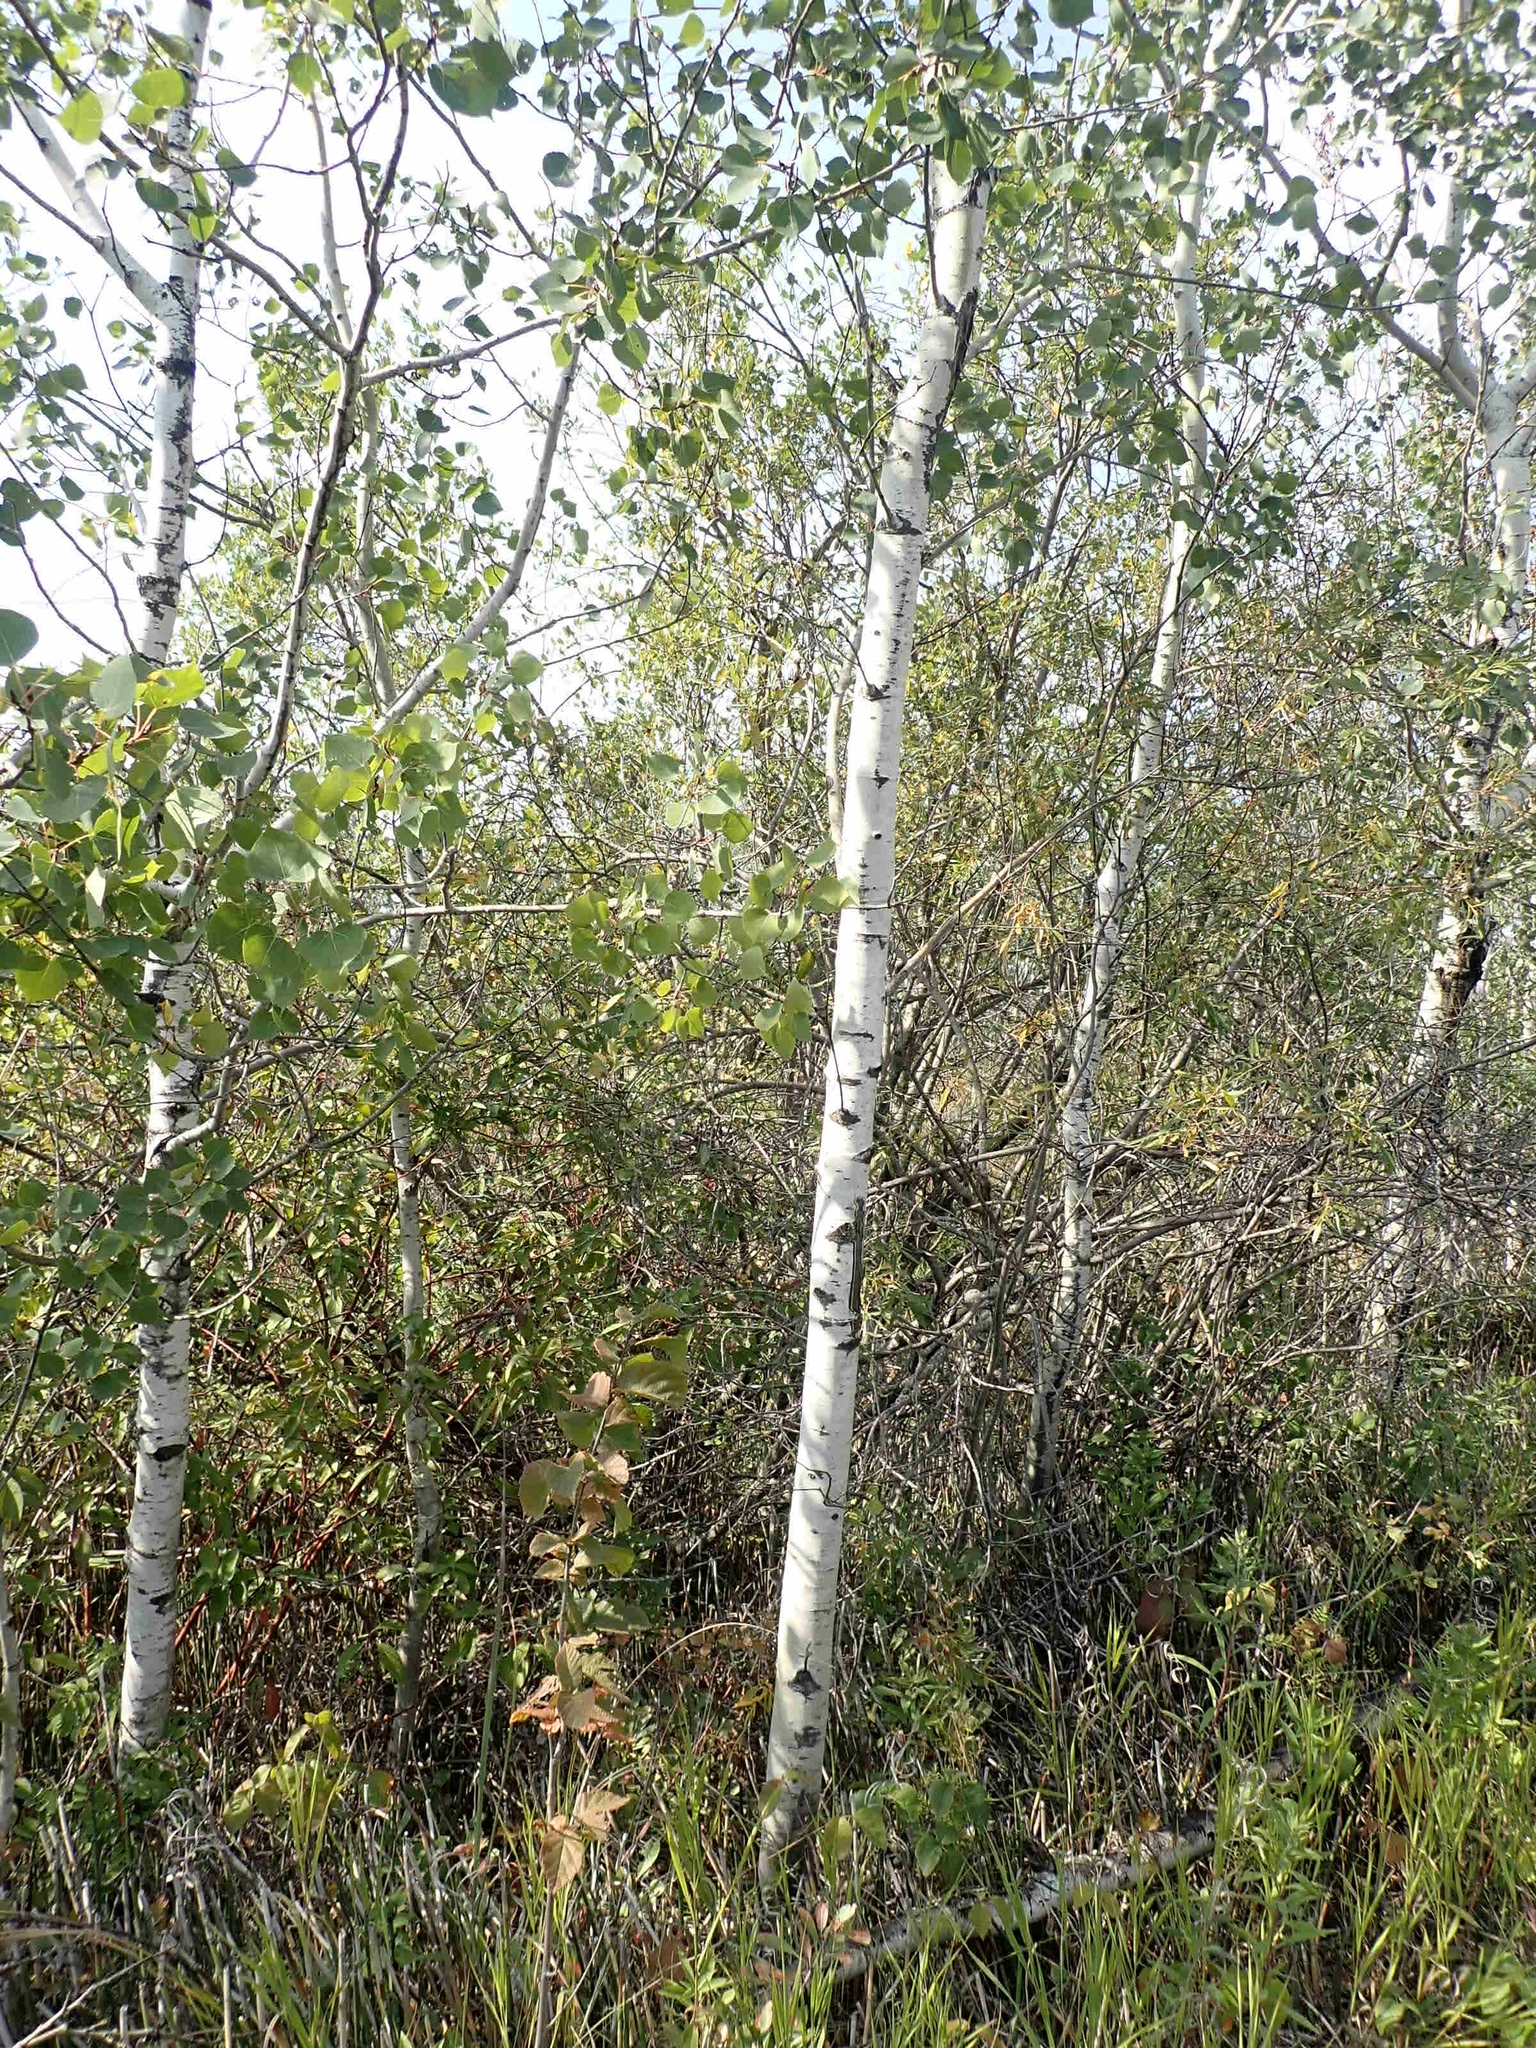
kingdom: Plantae
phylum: Tracheophyta
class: Magnoliopsida
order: Malpighiales
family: Salicaceae
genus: Populus
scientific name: Populus tremuloides
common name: Quaking aspen
